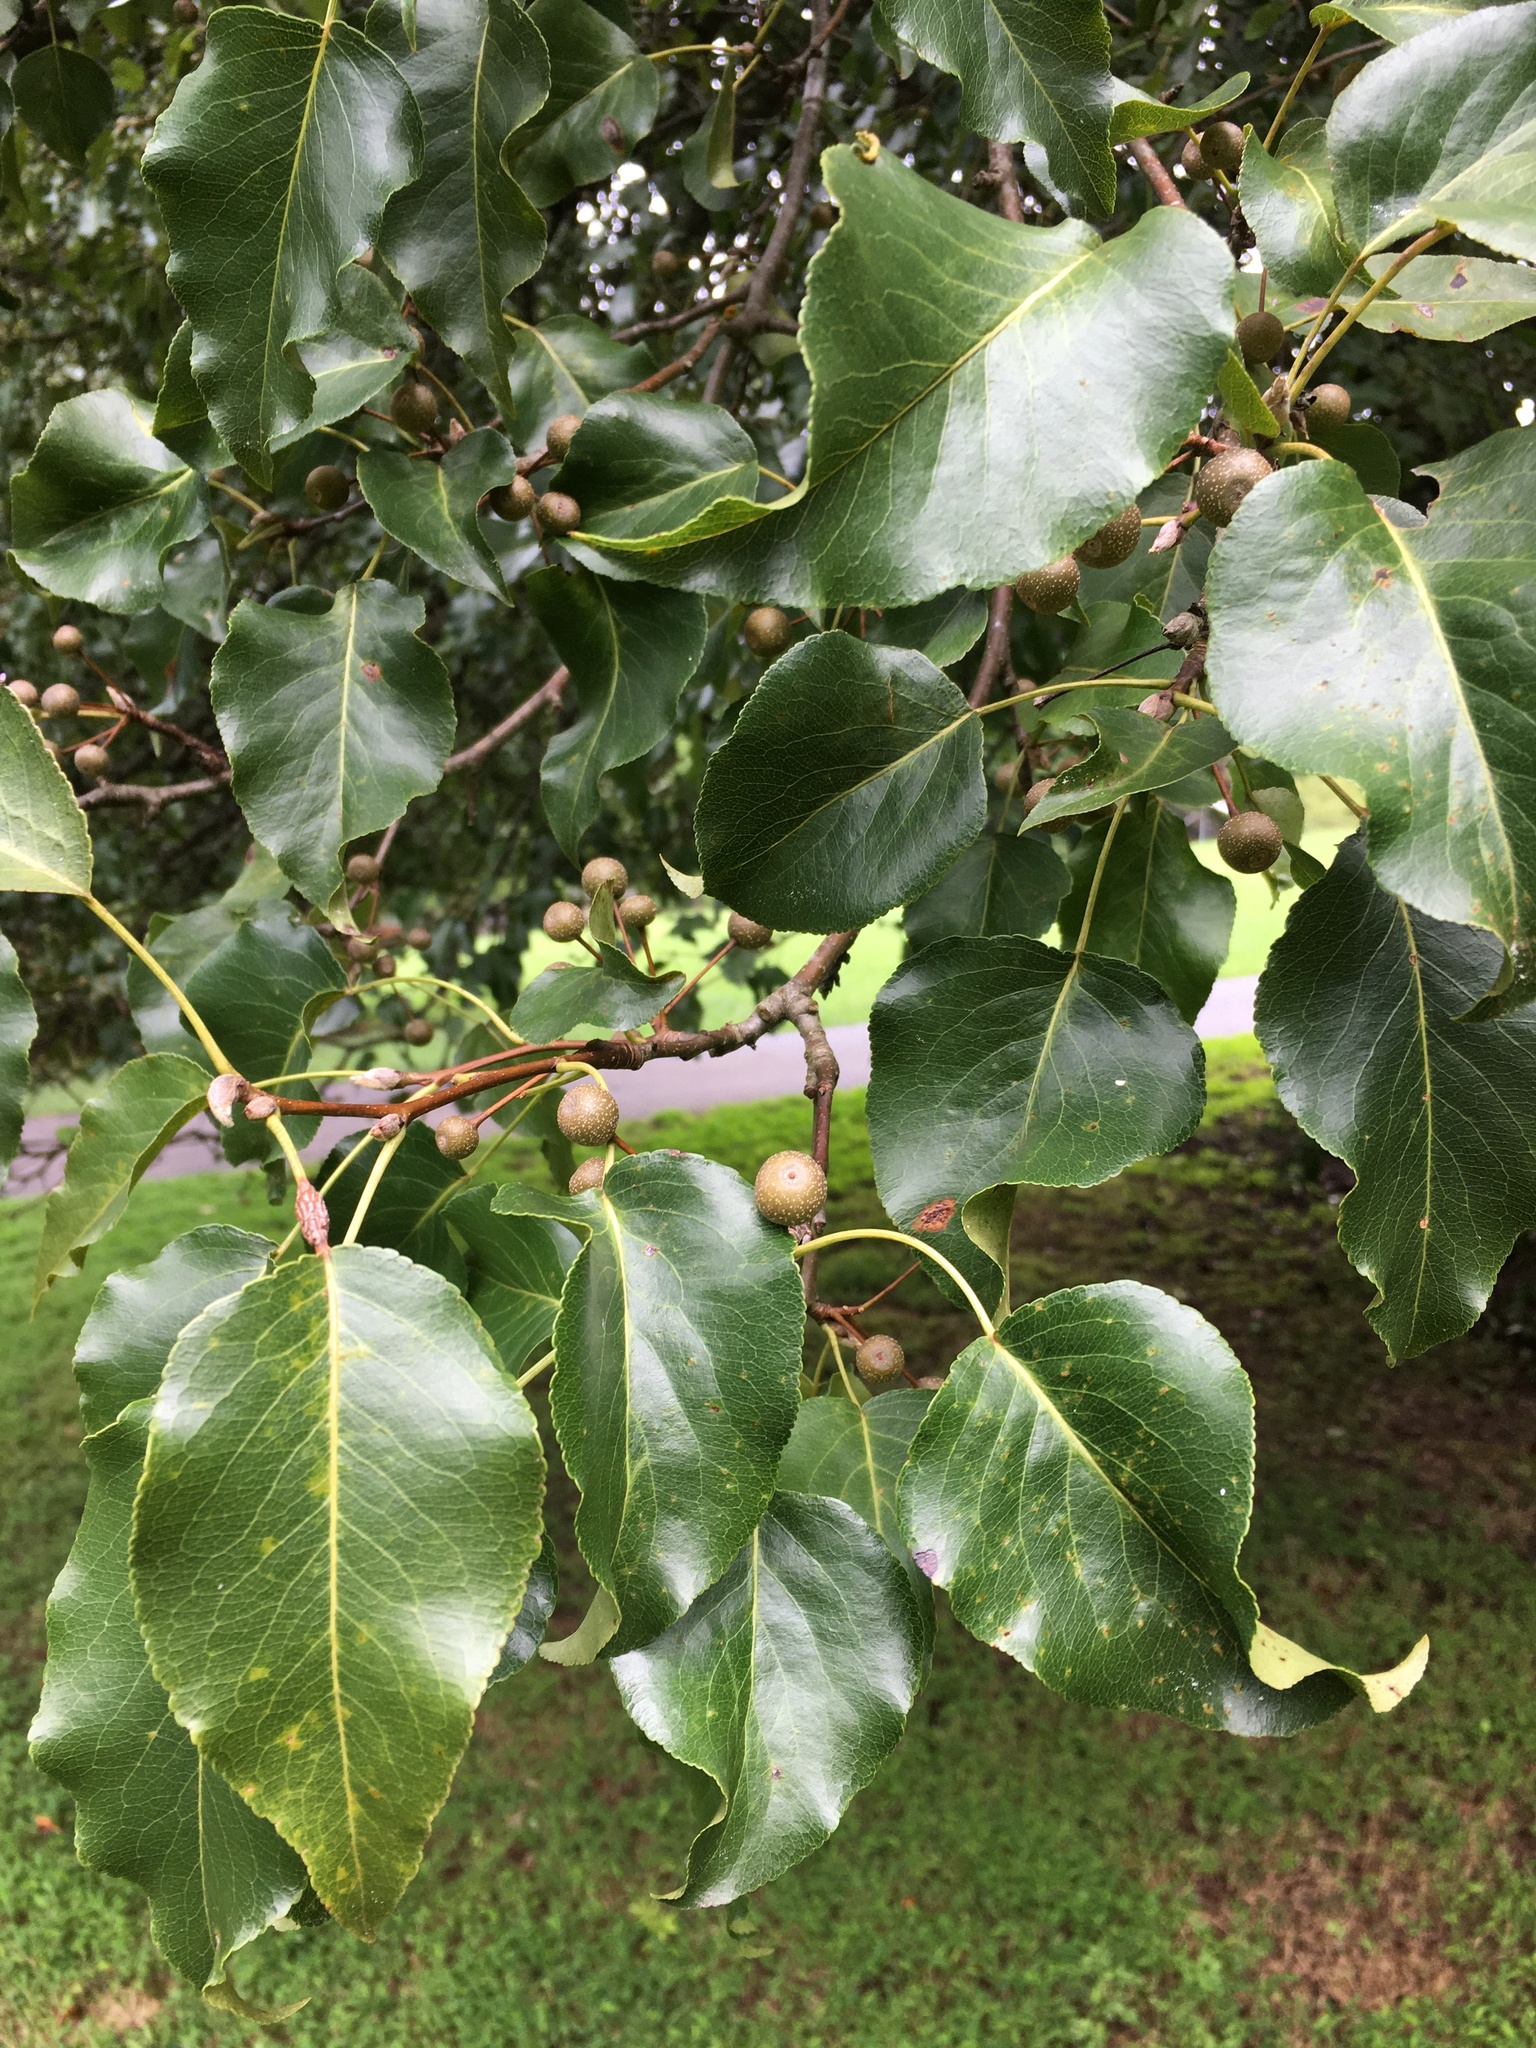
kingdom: Plantae
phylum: Tracheophyta
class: Magnoliopsida
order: Rosales
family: Rosaceae
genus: Pyrus
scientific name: Pyrus calleryana
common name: Callery pear
